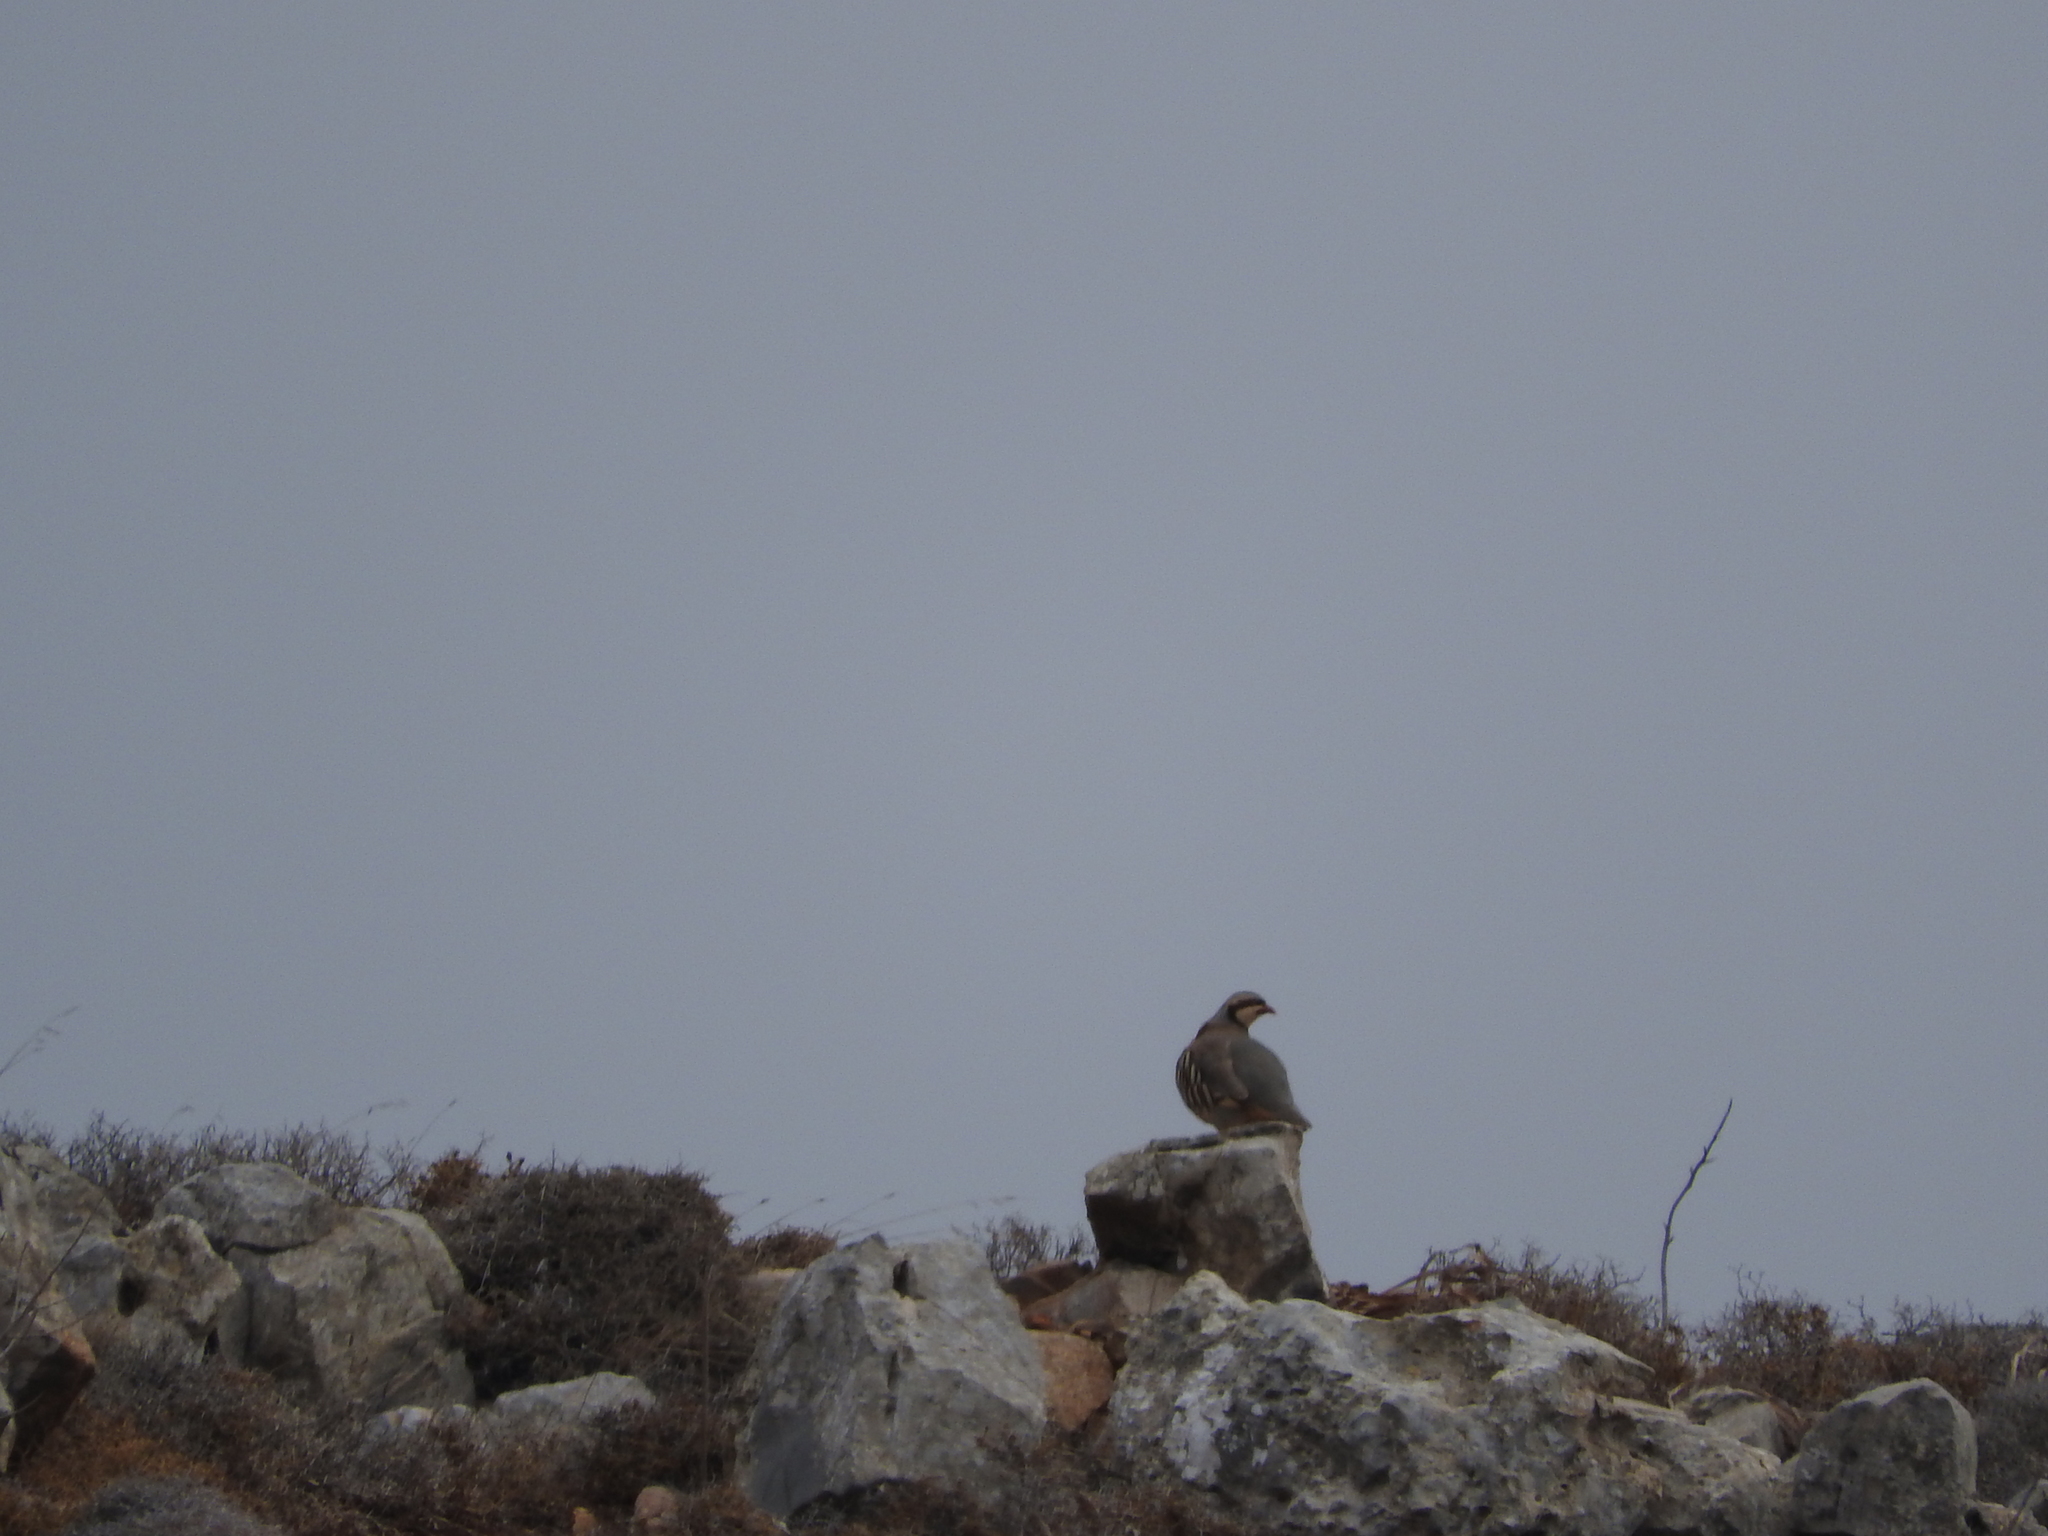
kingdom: Animalia
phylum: Chordata
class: Aves
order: Galliformes
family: Phasianidae
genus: Alectoris
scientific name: Alectoris chukar
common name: Chukar
